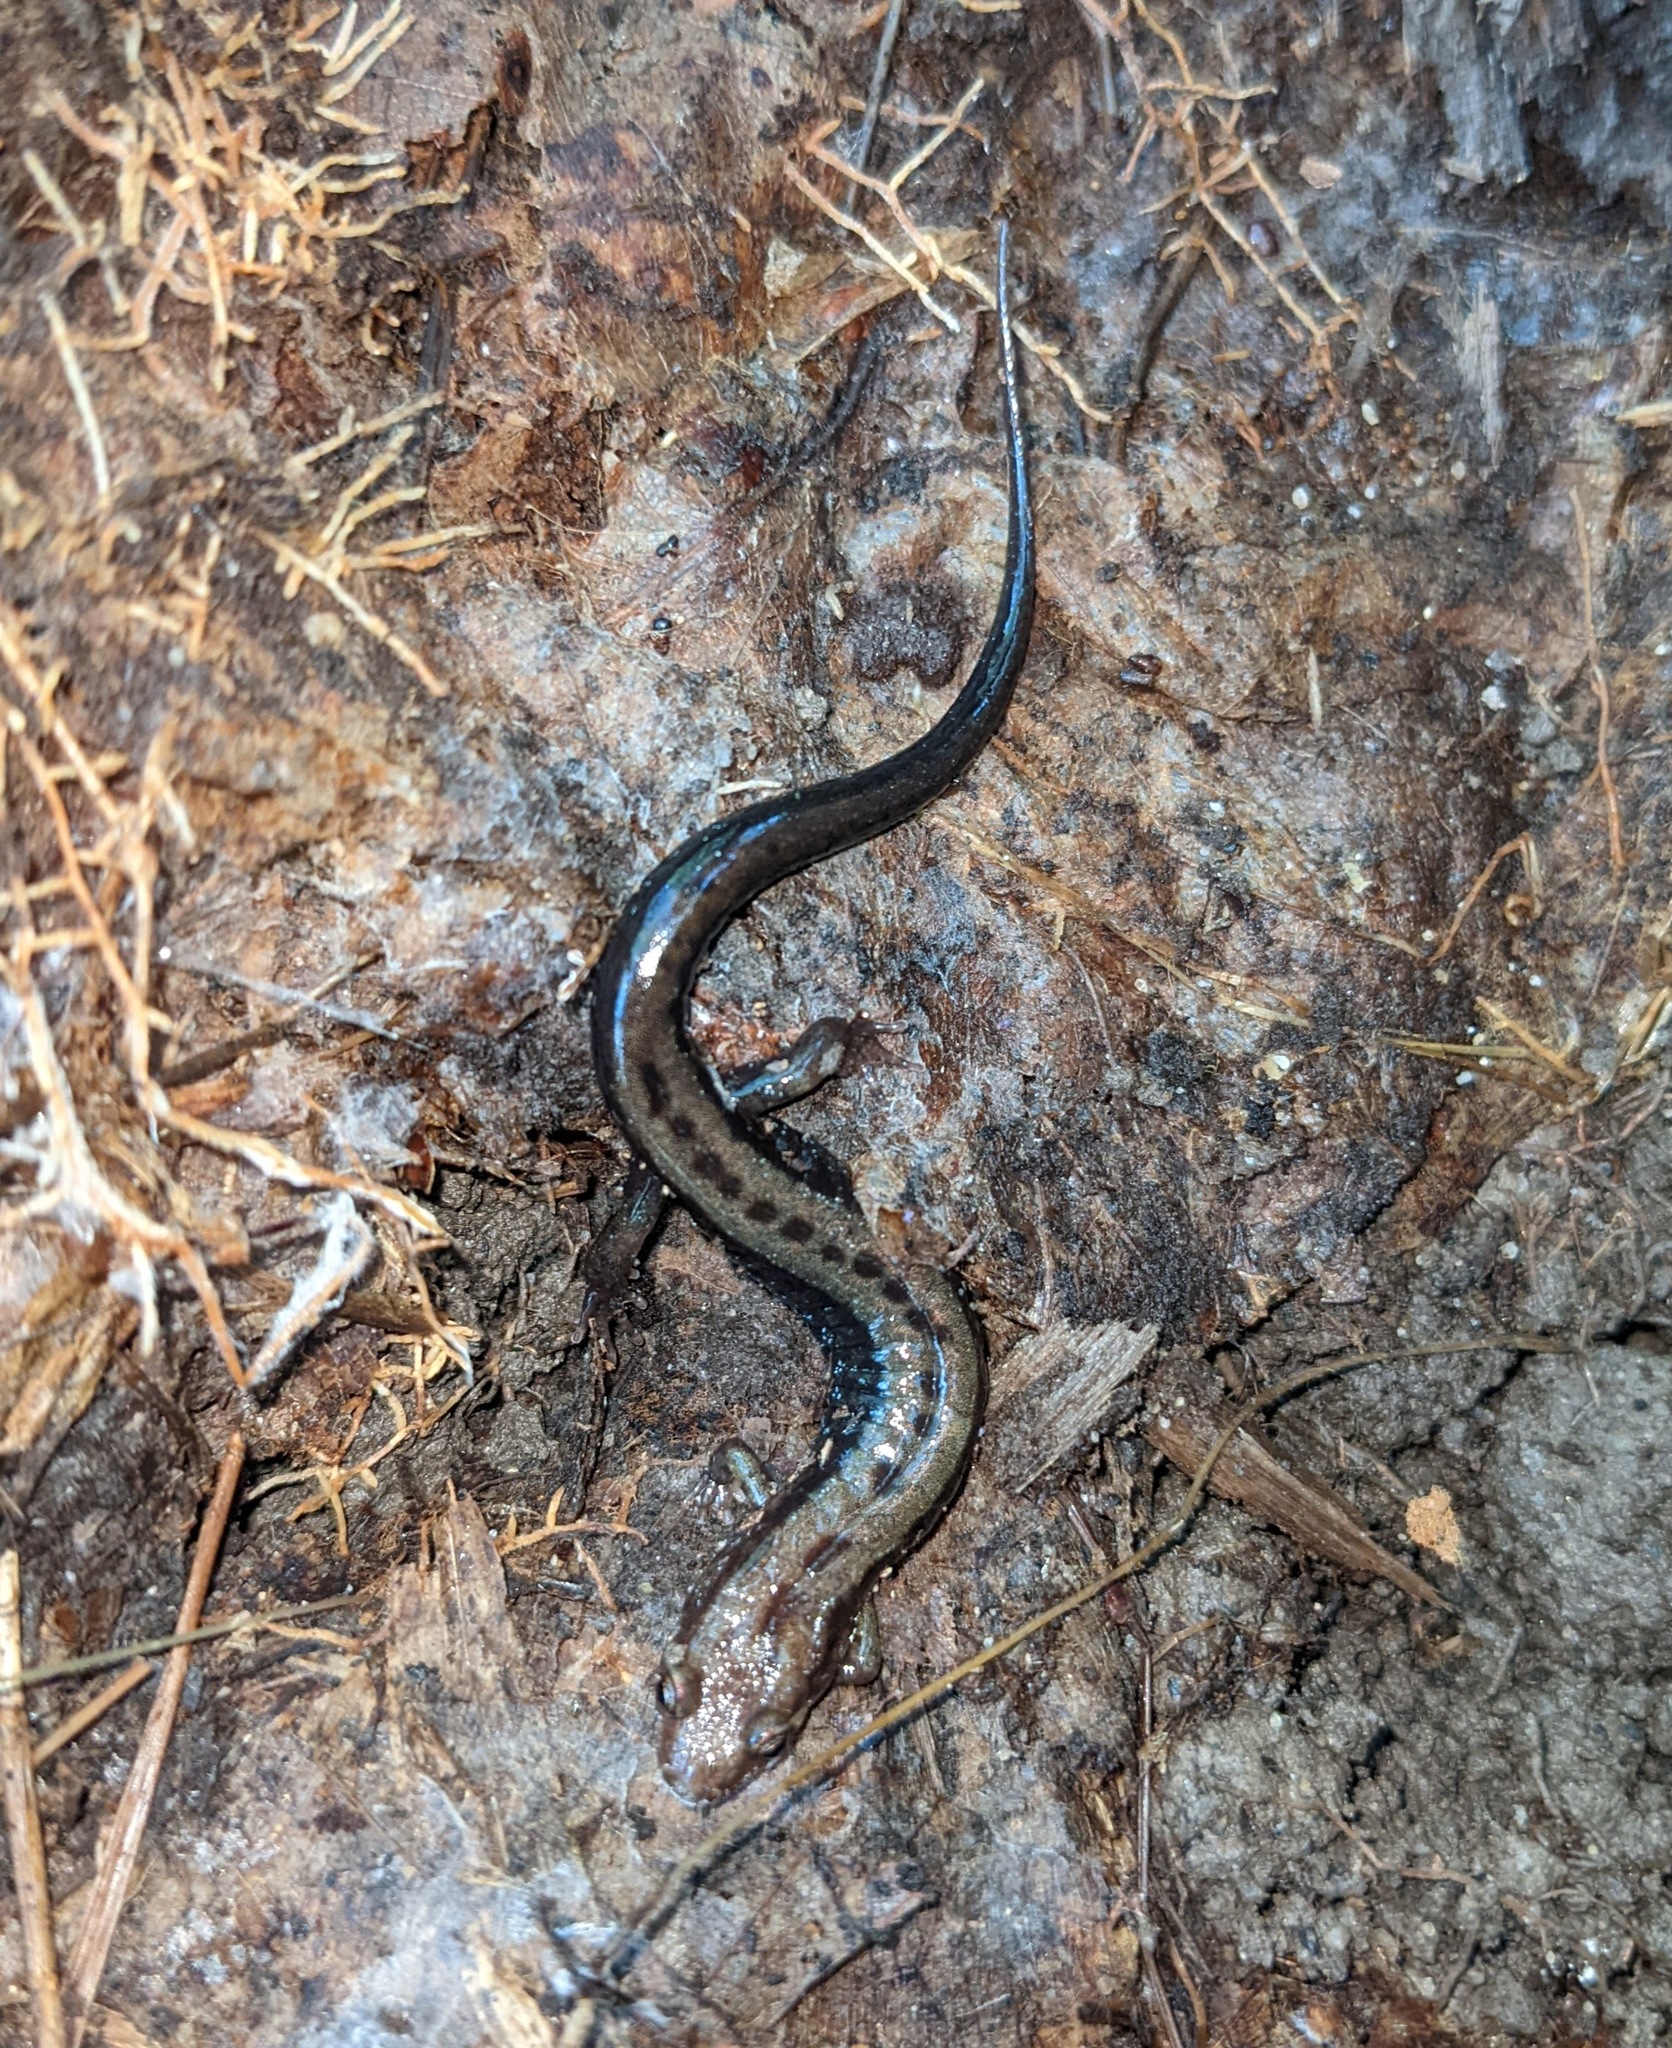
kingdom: Animalia
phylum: Chordata
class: Amphibia
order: Caudata
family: Plethodontidae
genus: Desmognathus
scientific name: Desmognathus ochrophaeus
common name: Allegheny mountain dusky salamander
